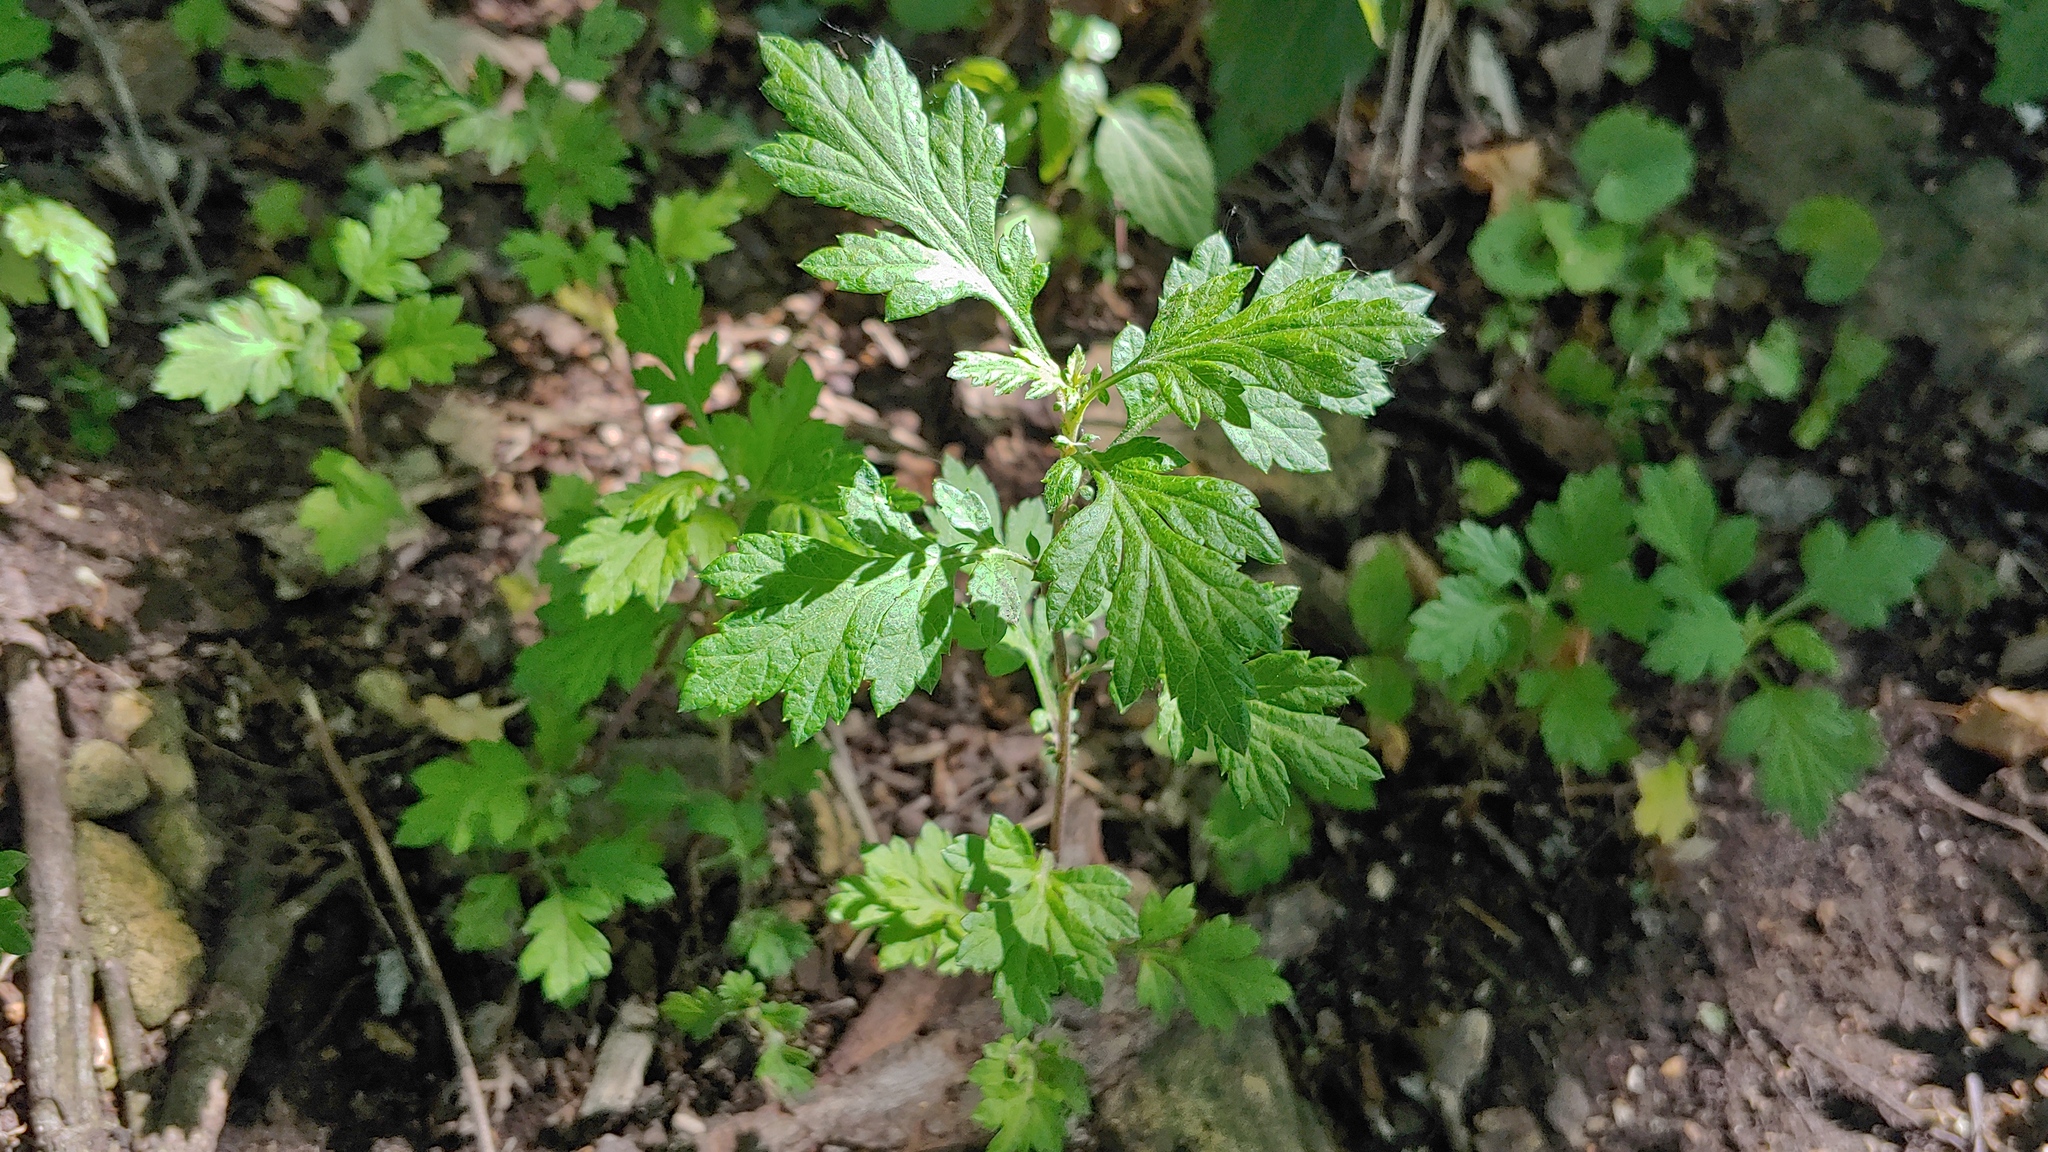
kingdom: Plantae
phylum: Tracheophyta
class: Magnoliopsida
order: Asterales
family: Asteraceae
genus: Artemisia
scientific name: Artemisia vulgaris
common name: Mugwort
